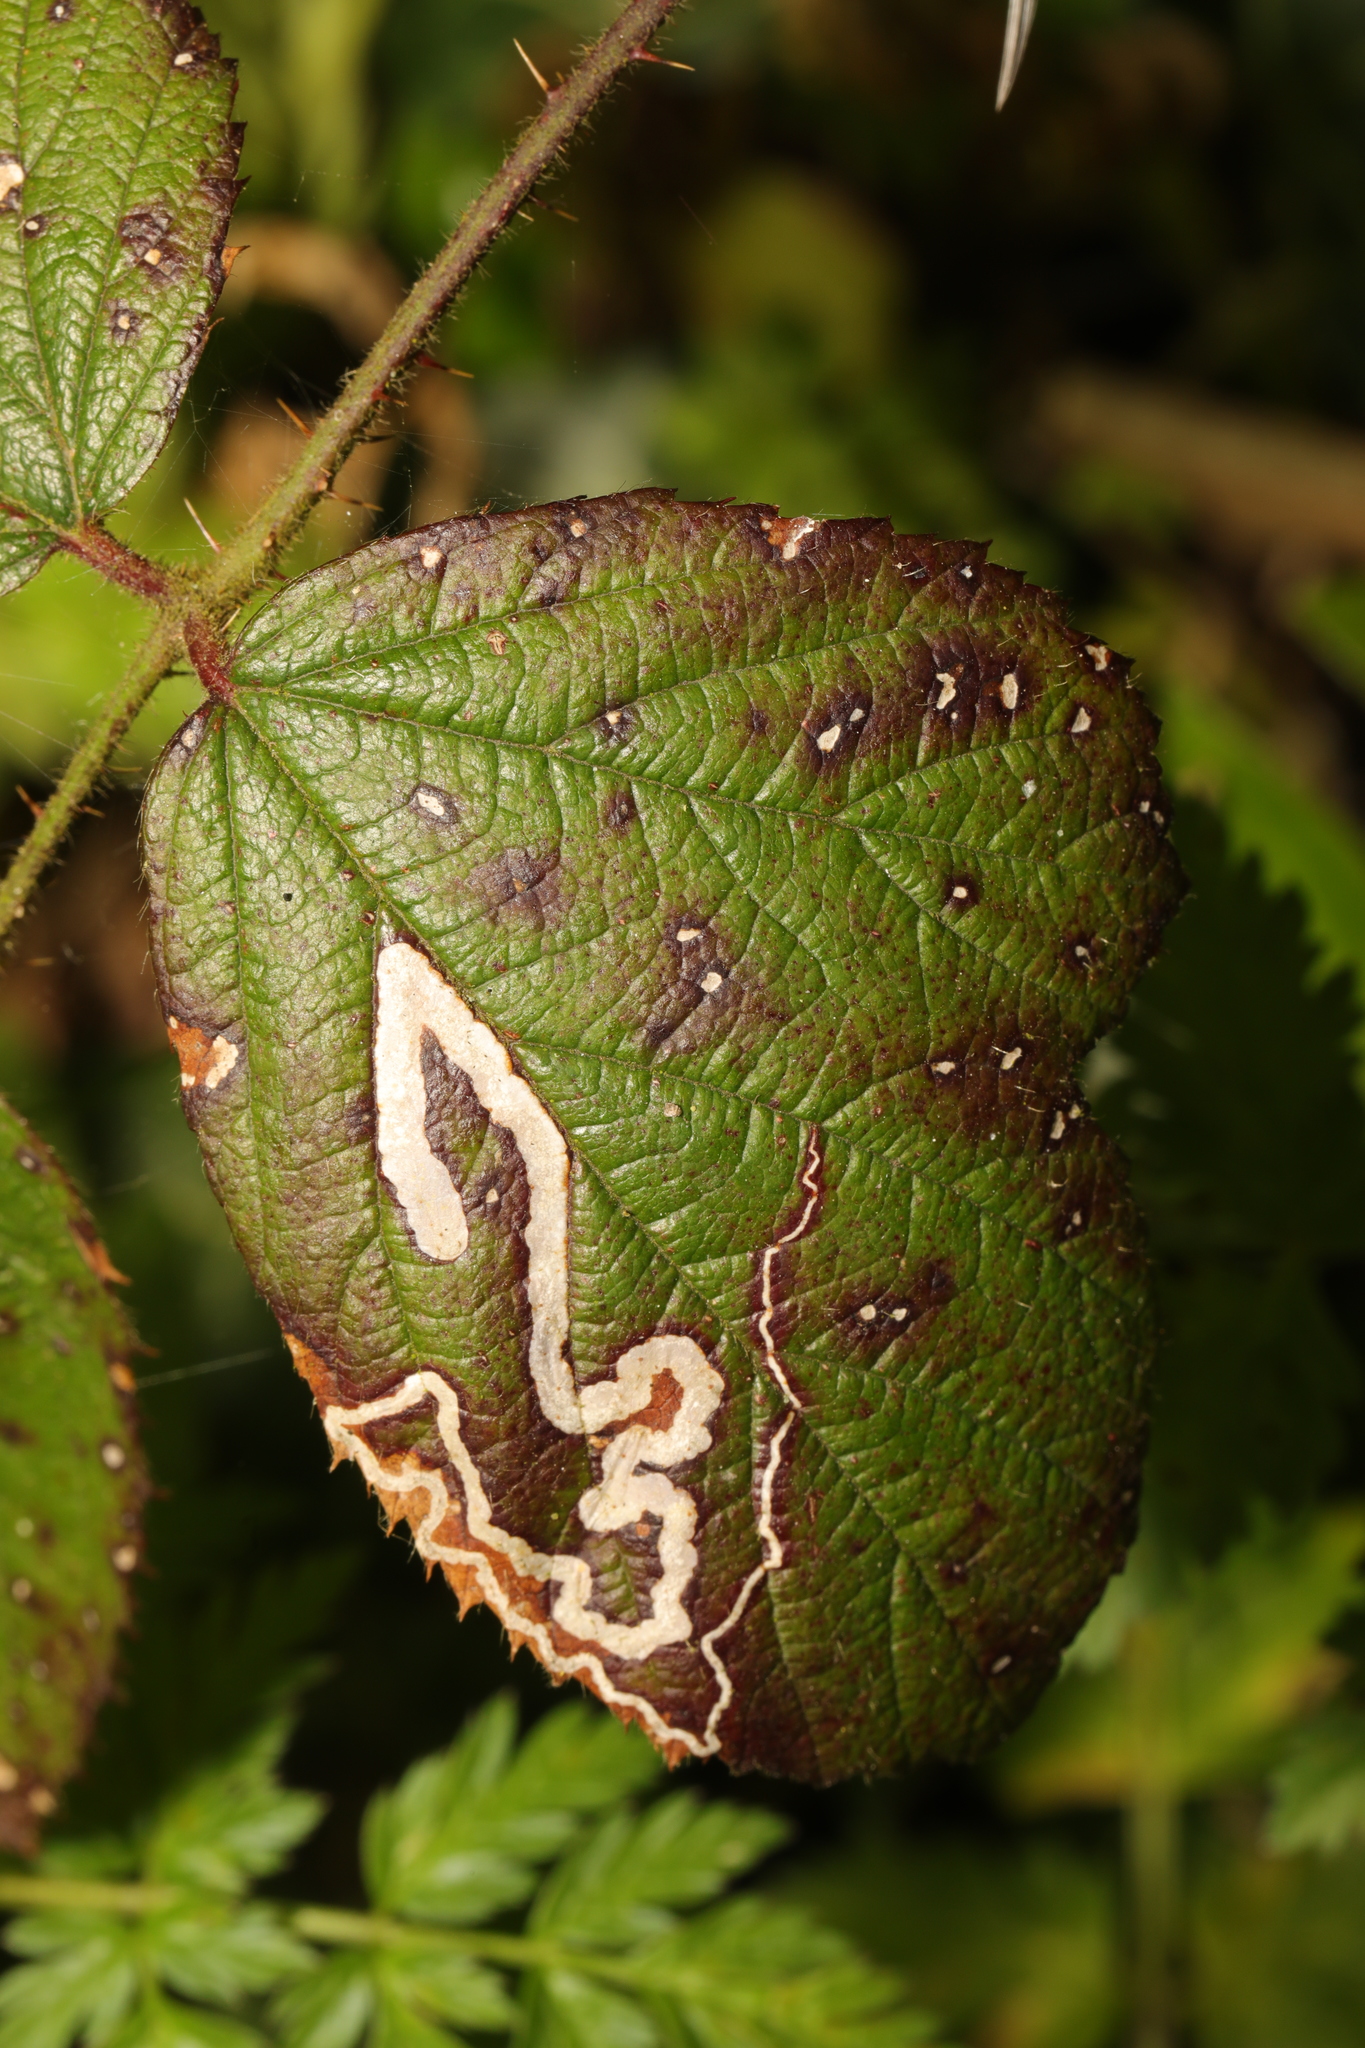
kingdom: Animalia
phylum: Arthropoda
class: Insecta
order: Lepidoptera
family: Nepticulidae
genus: Stigmella
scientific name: Stigmella aurella
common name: Golden pigmy
